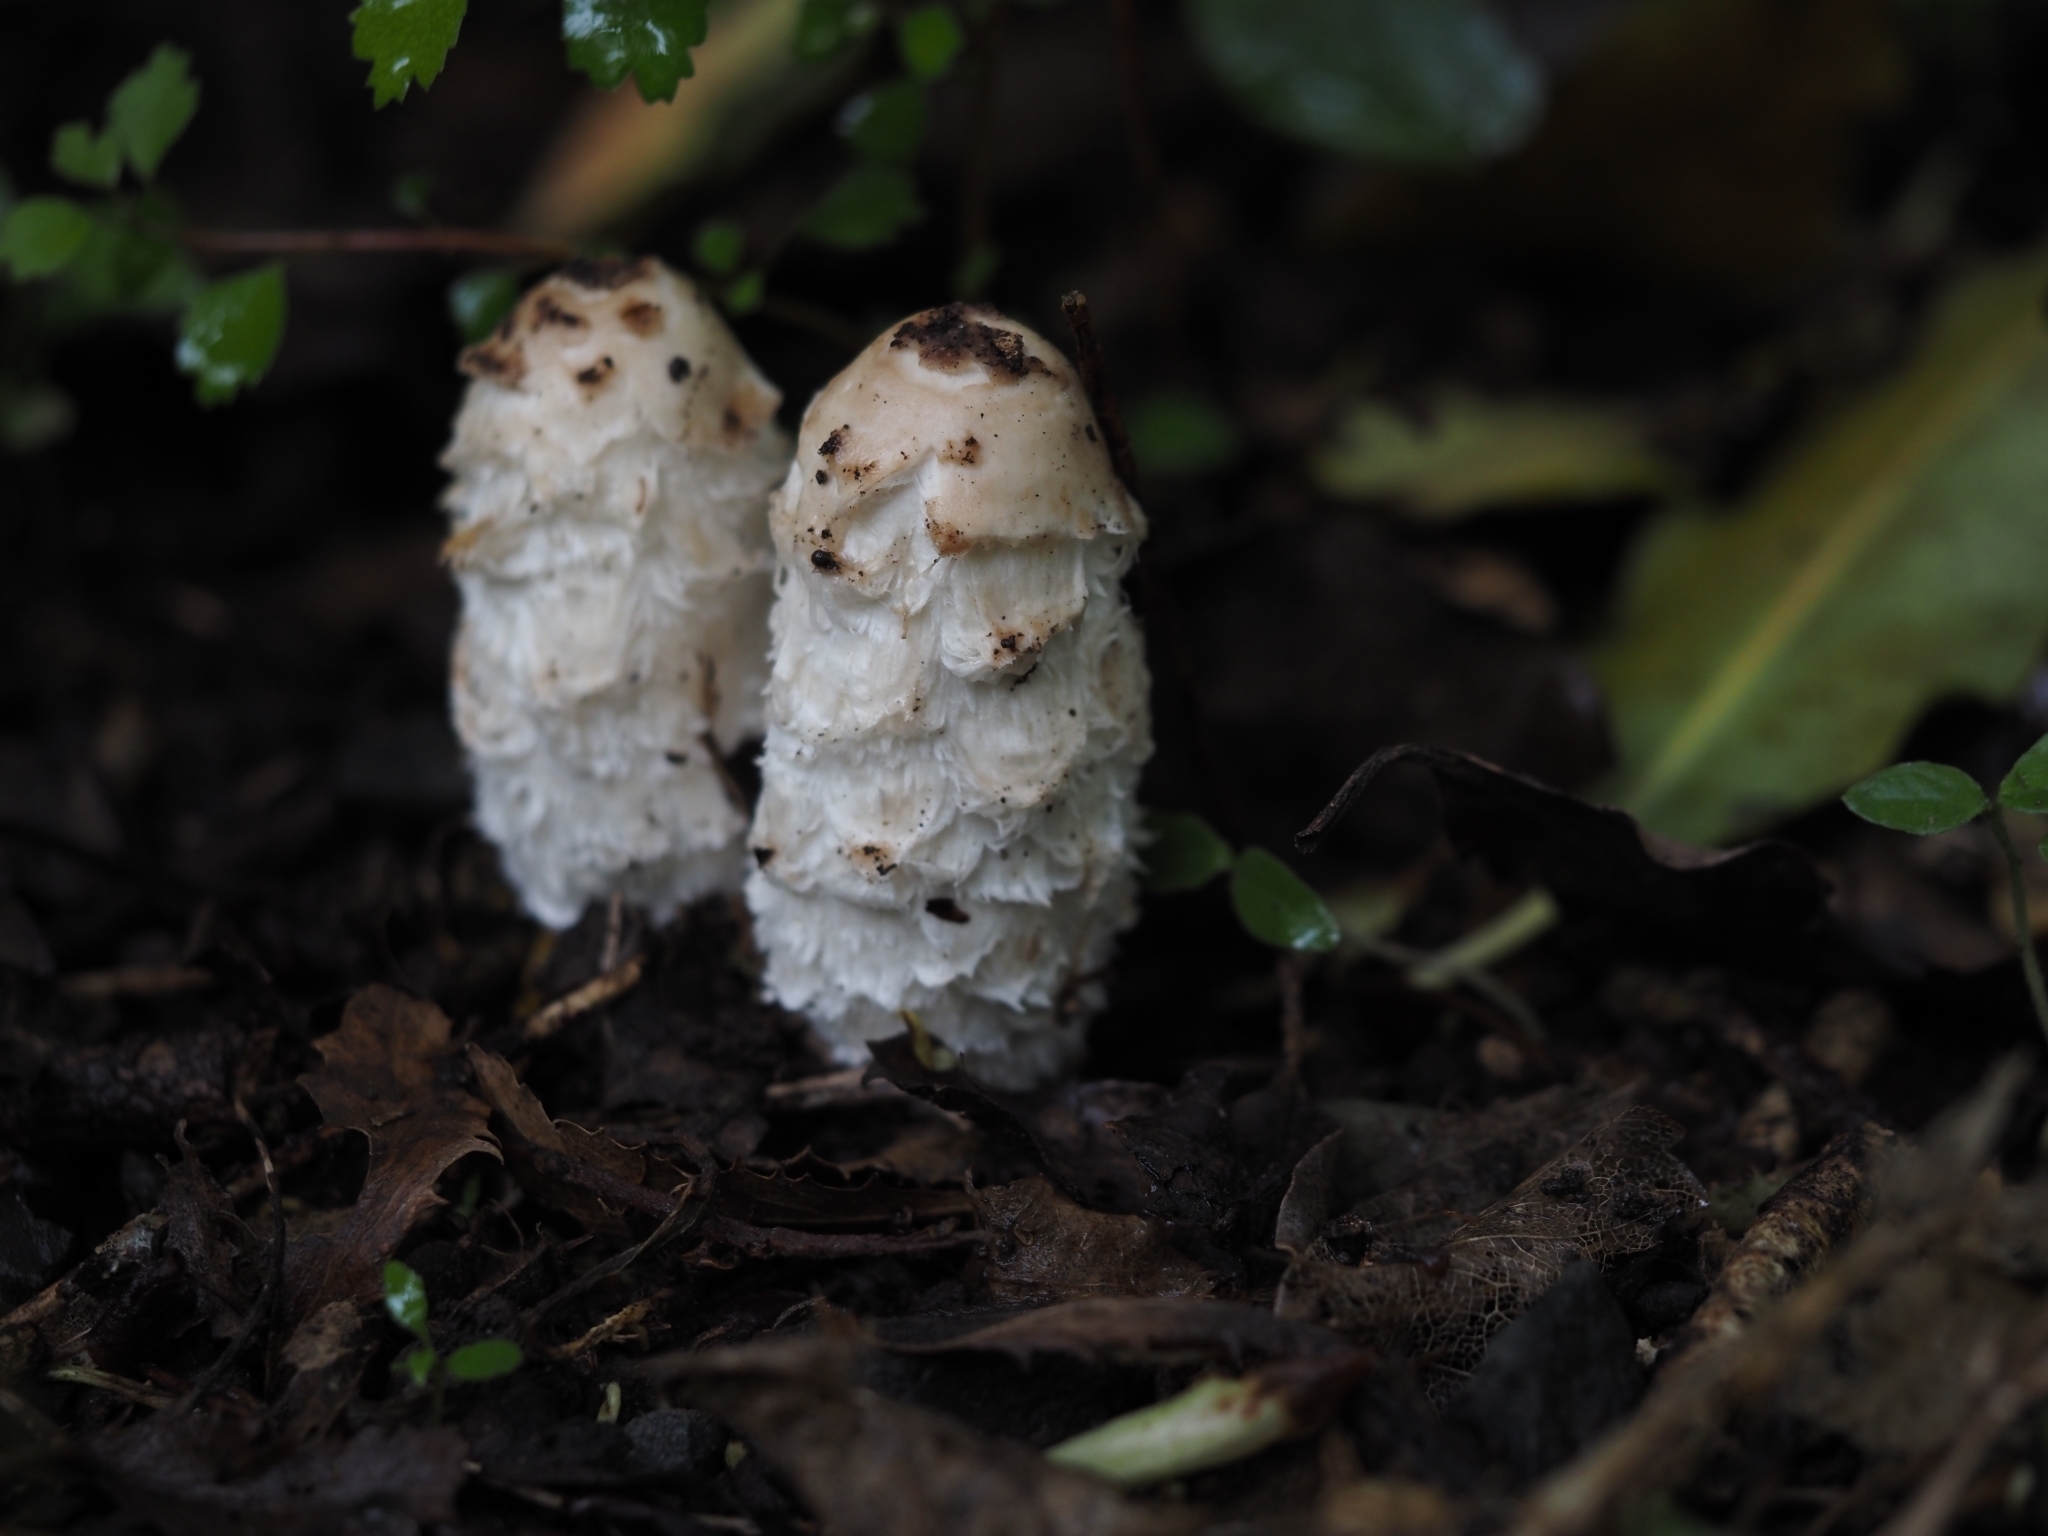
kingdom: Fungi
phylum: Basidiomycota
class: Agaricomycetes
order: Agaricales
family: Agaricaceae
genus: Coprinus
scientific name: Coprinus comatus
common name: Lawyer's wig
